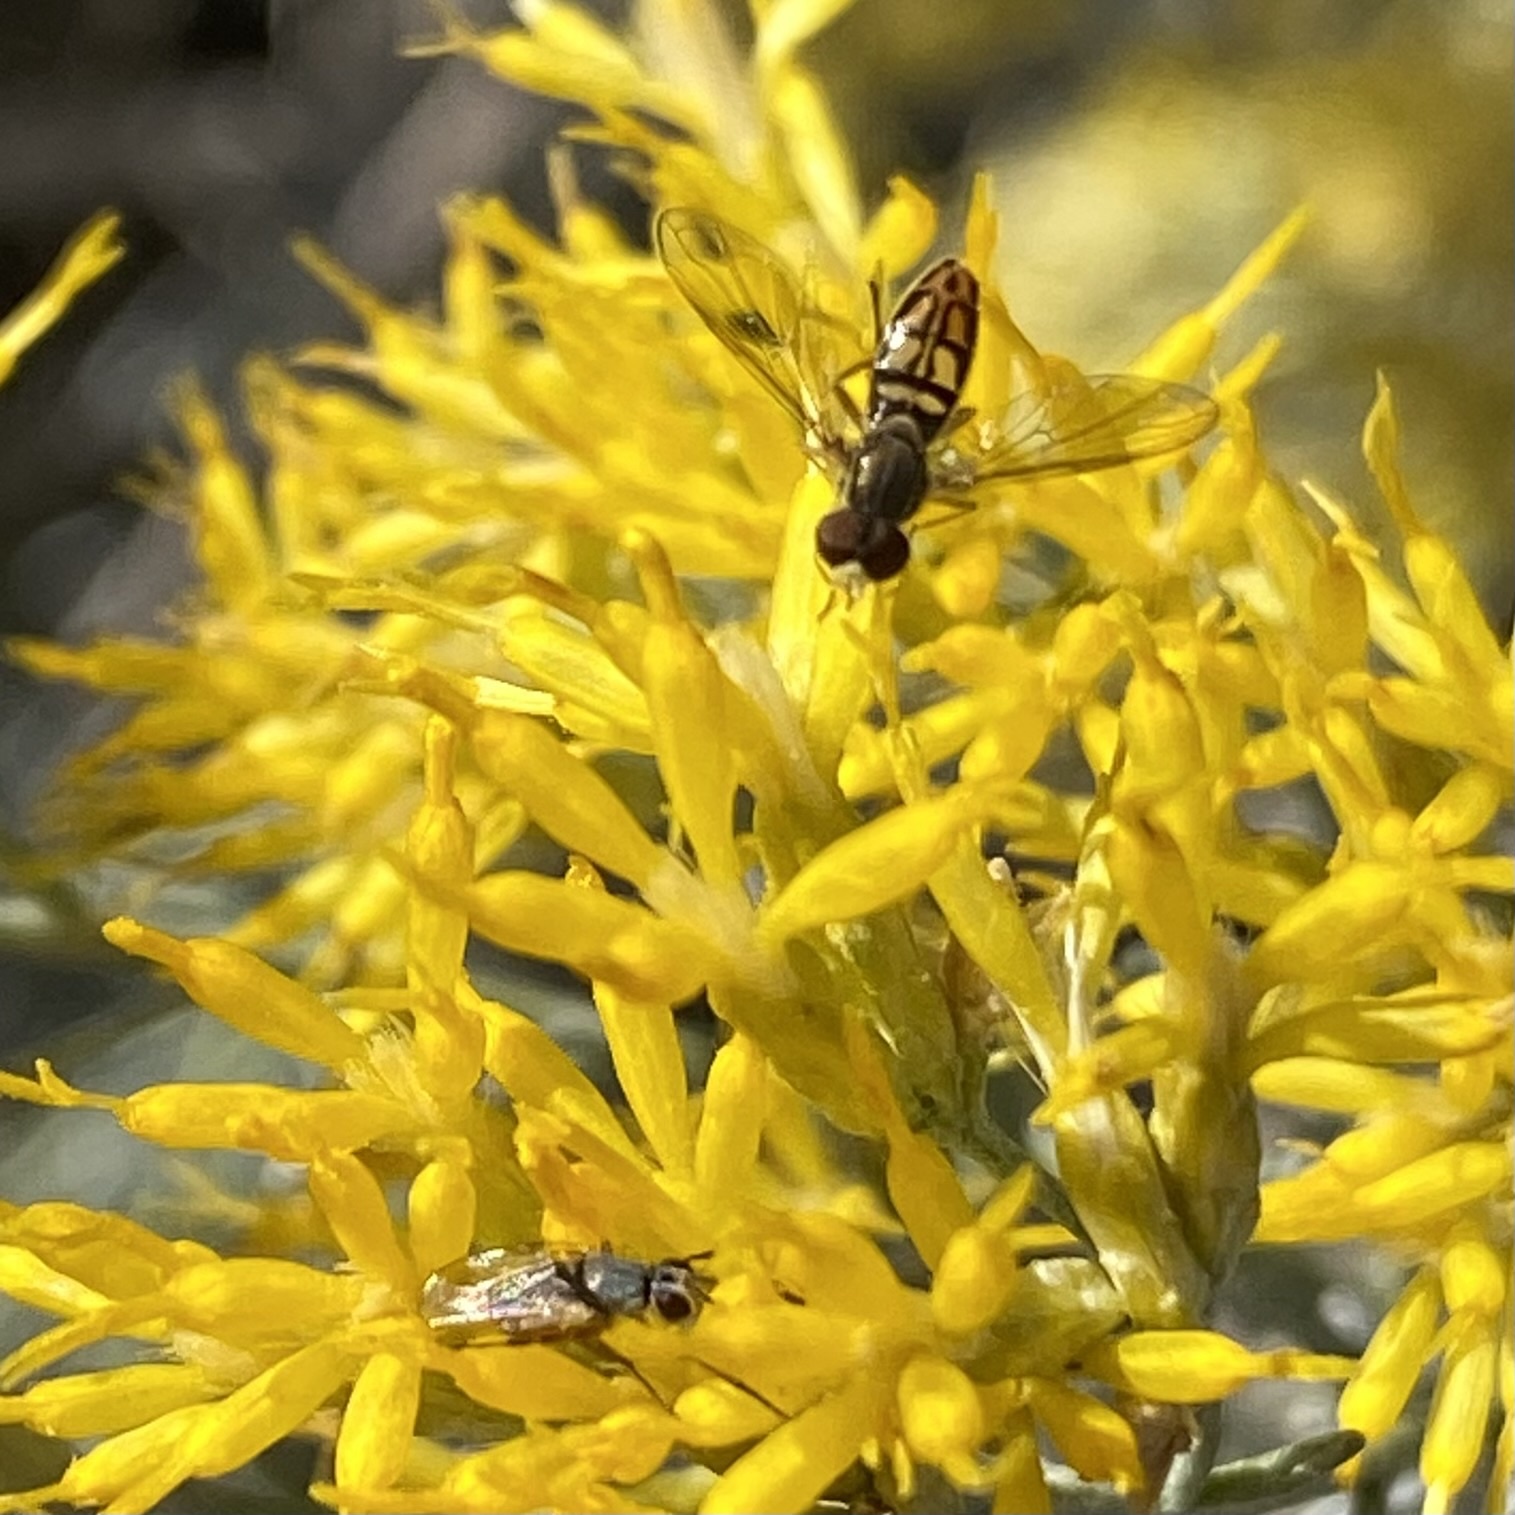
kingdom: Animalia
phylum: Arthropoda
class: Insecta
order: Diptera
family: Syrphidae
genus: Toxomerus
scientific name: Toxomerus marginatus
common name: Syrphid fly
